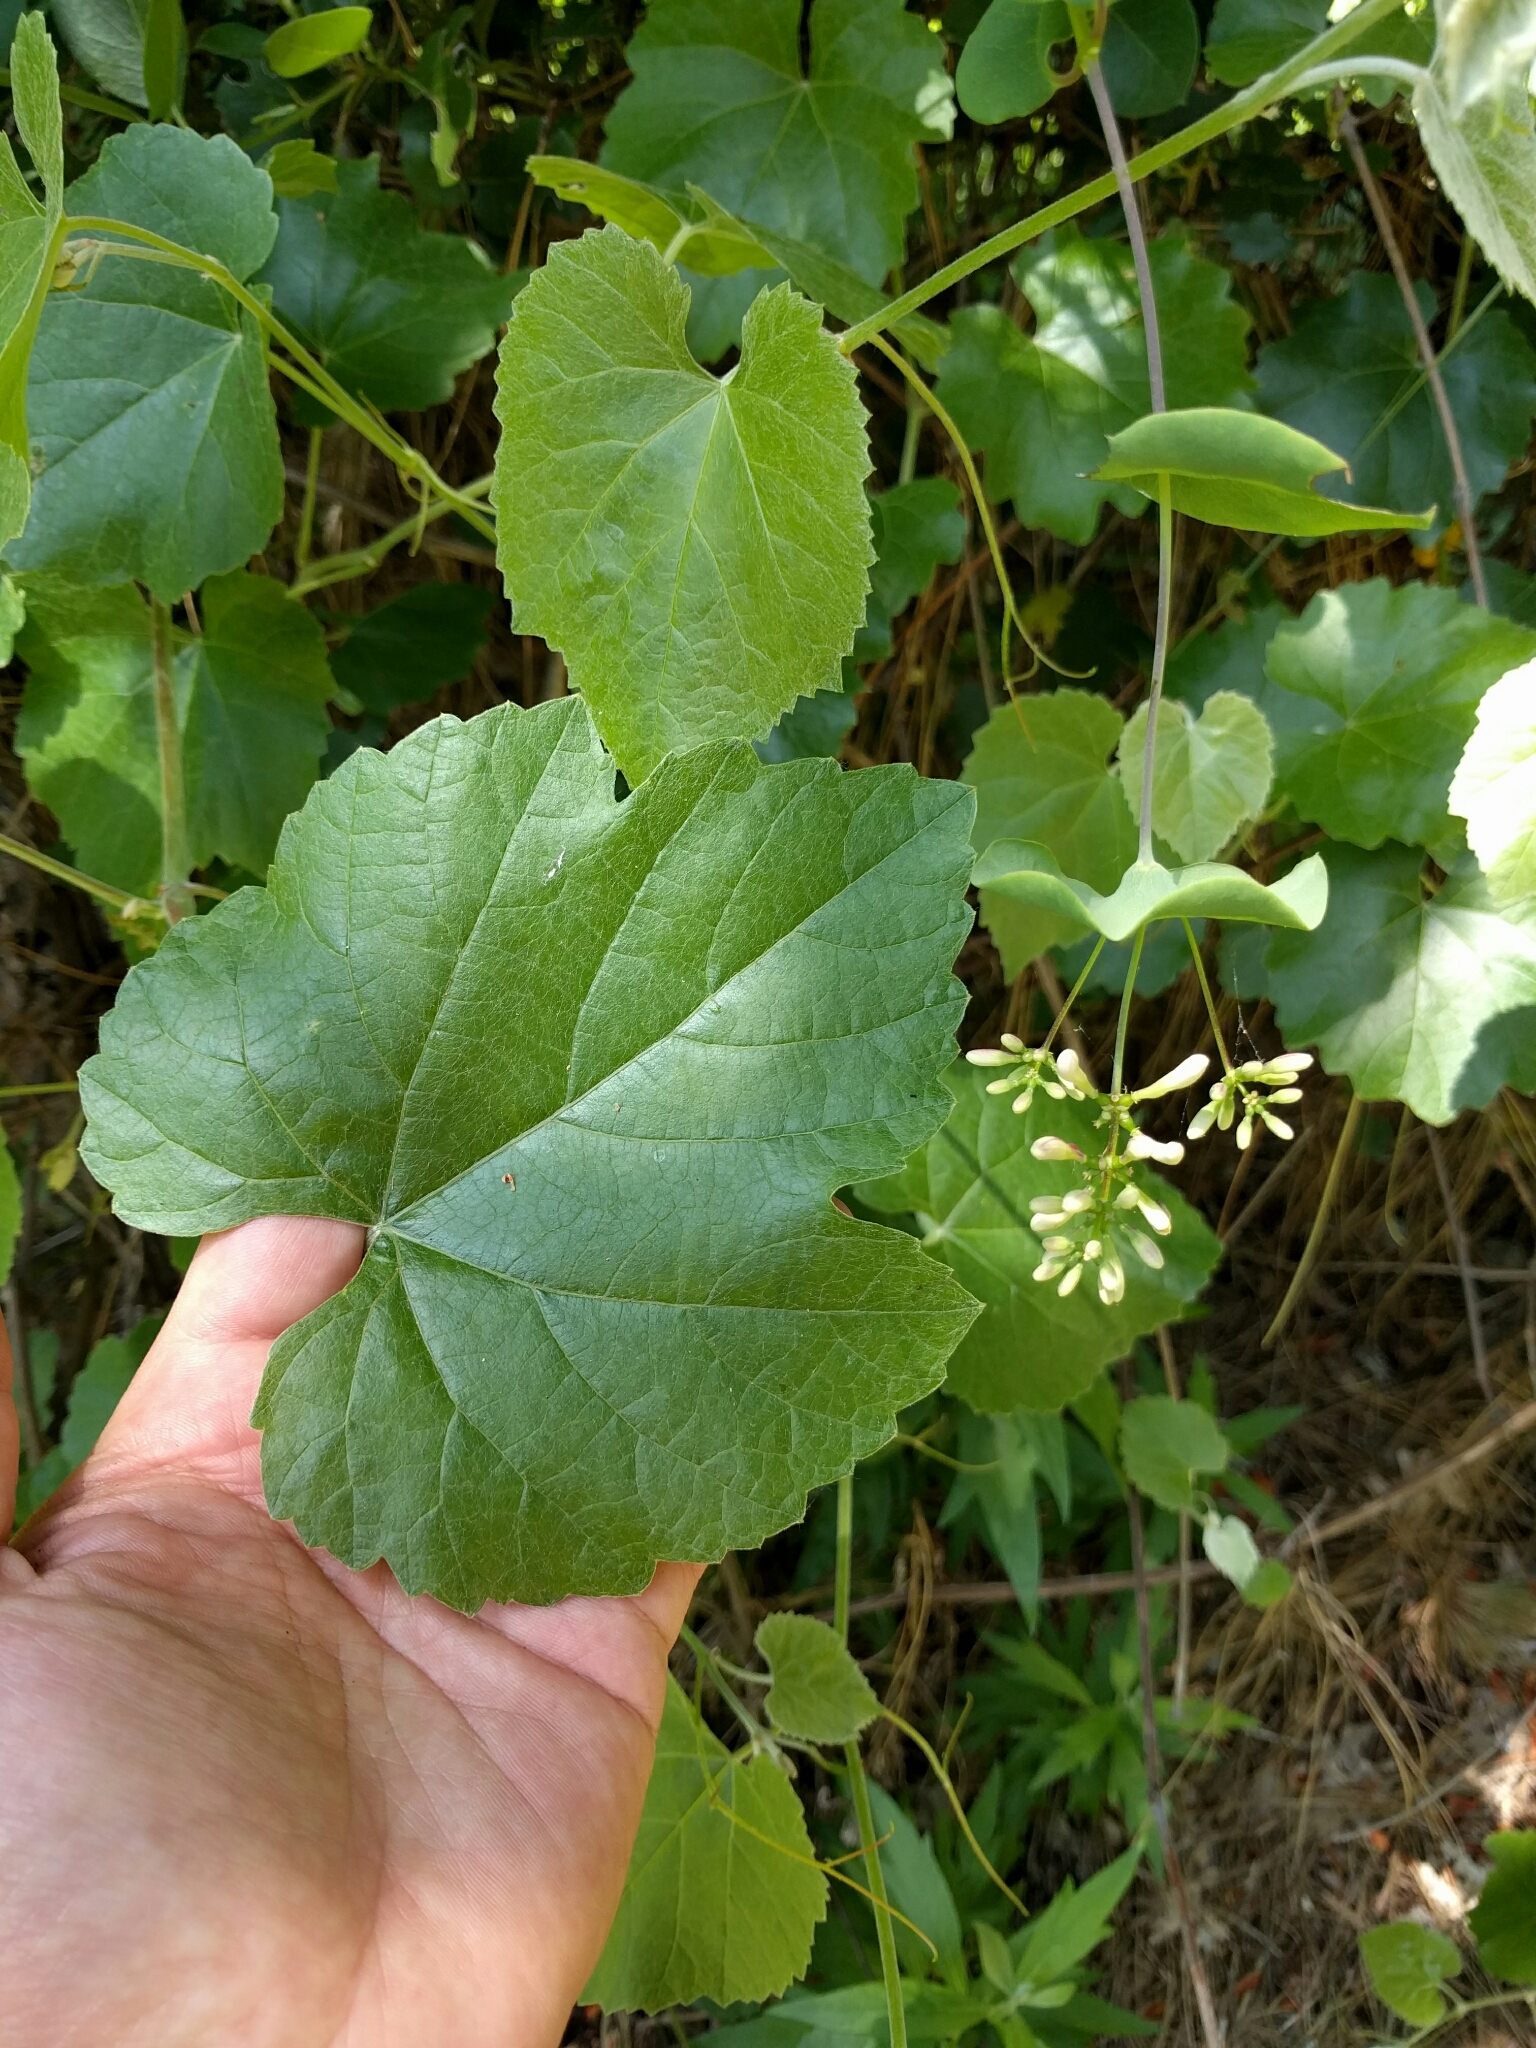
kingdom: Plantae
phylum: Tracheophyta
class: Magnoliopsida
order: Vitales
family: Vitaceae
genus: Vitis
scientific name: Vitis californica
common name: California wild grape
